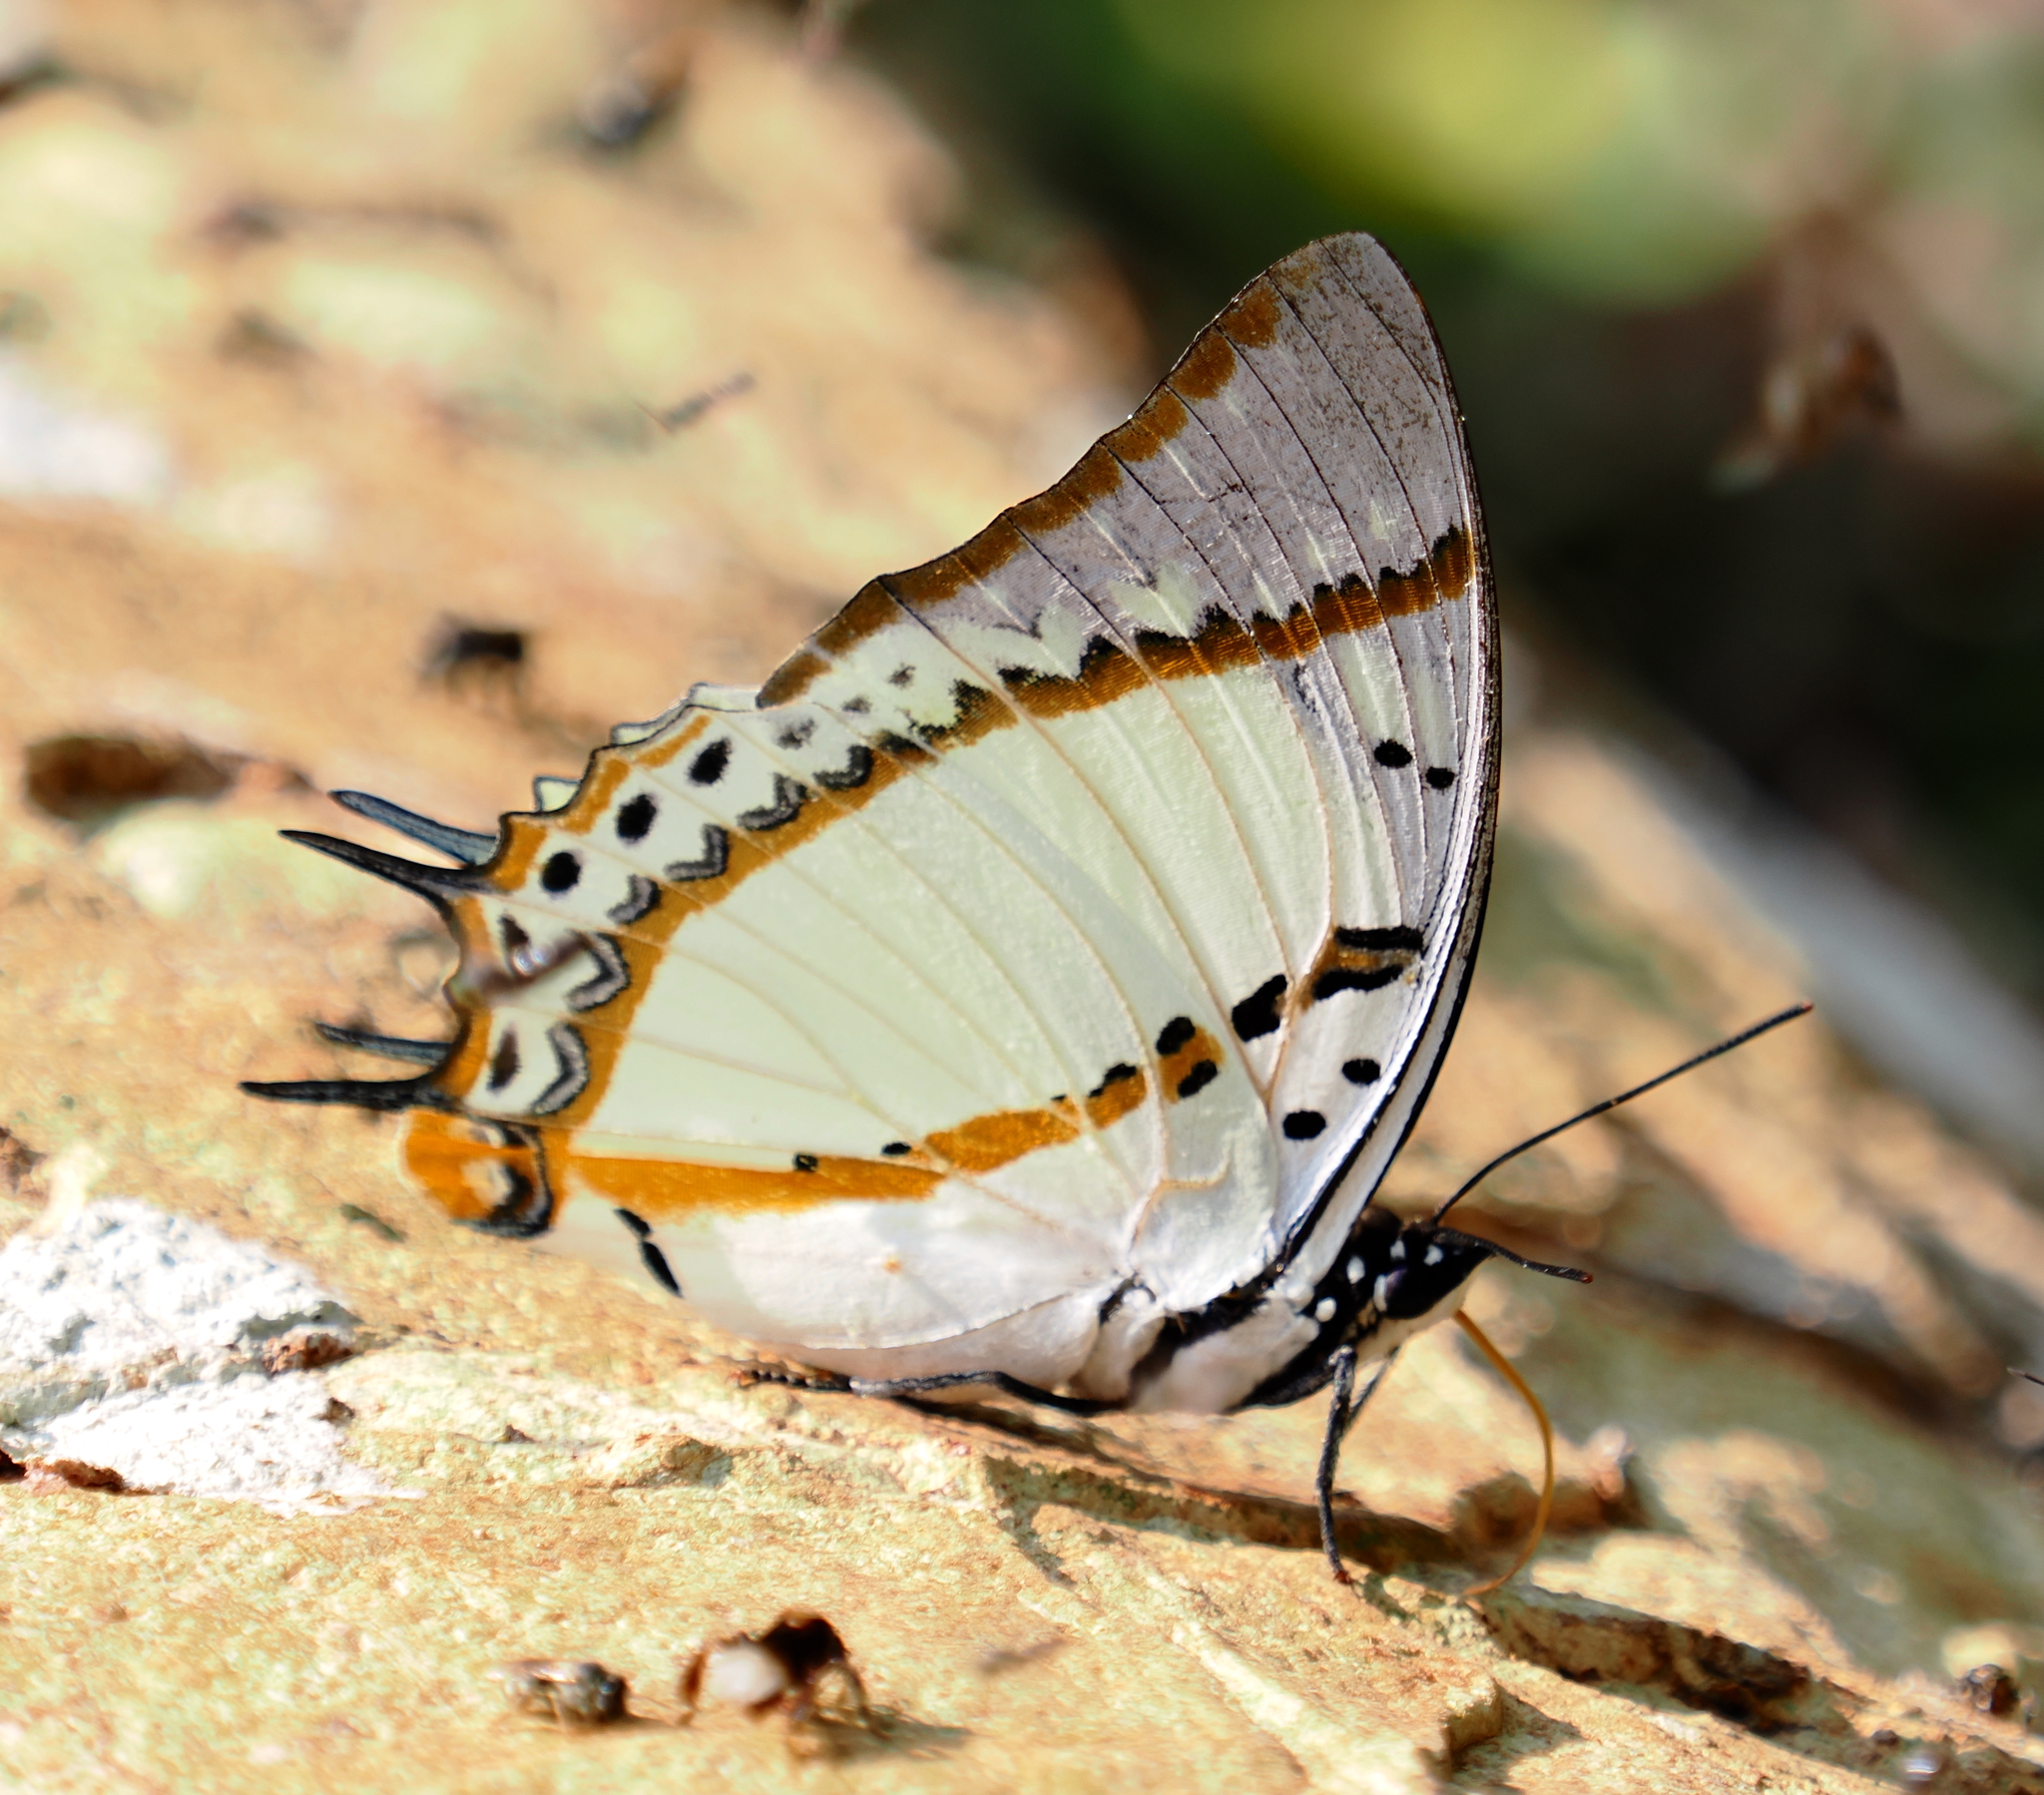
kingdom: Animalia
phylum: Arthropoda
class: Insecta
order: Lepidoptera
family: Nymphalidae
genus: Polyura
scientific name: Polyura nepenthes
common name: Shan nawab
